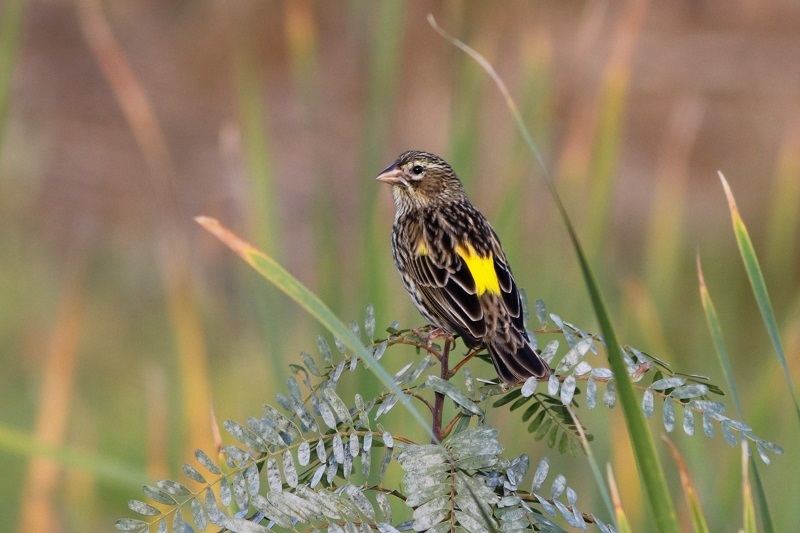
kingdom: Animalia
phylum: Chordata
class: Aves
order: Passeriformes
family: Ploceidae
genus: Euplectes
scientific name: Euplectes capensis
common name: Yellow bishop
